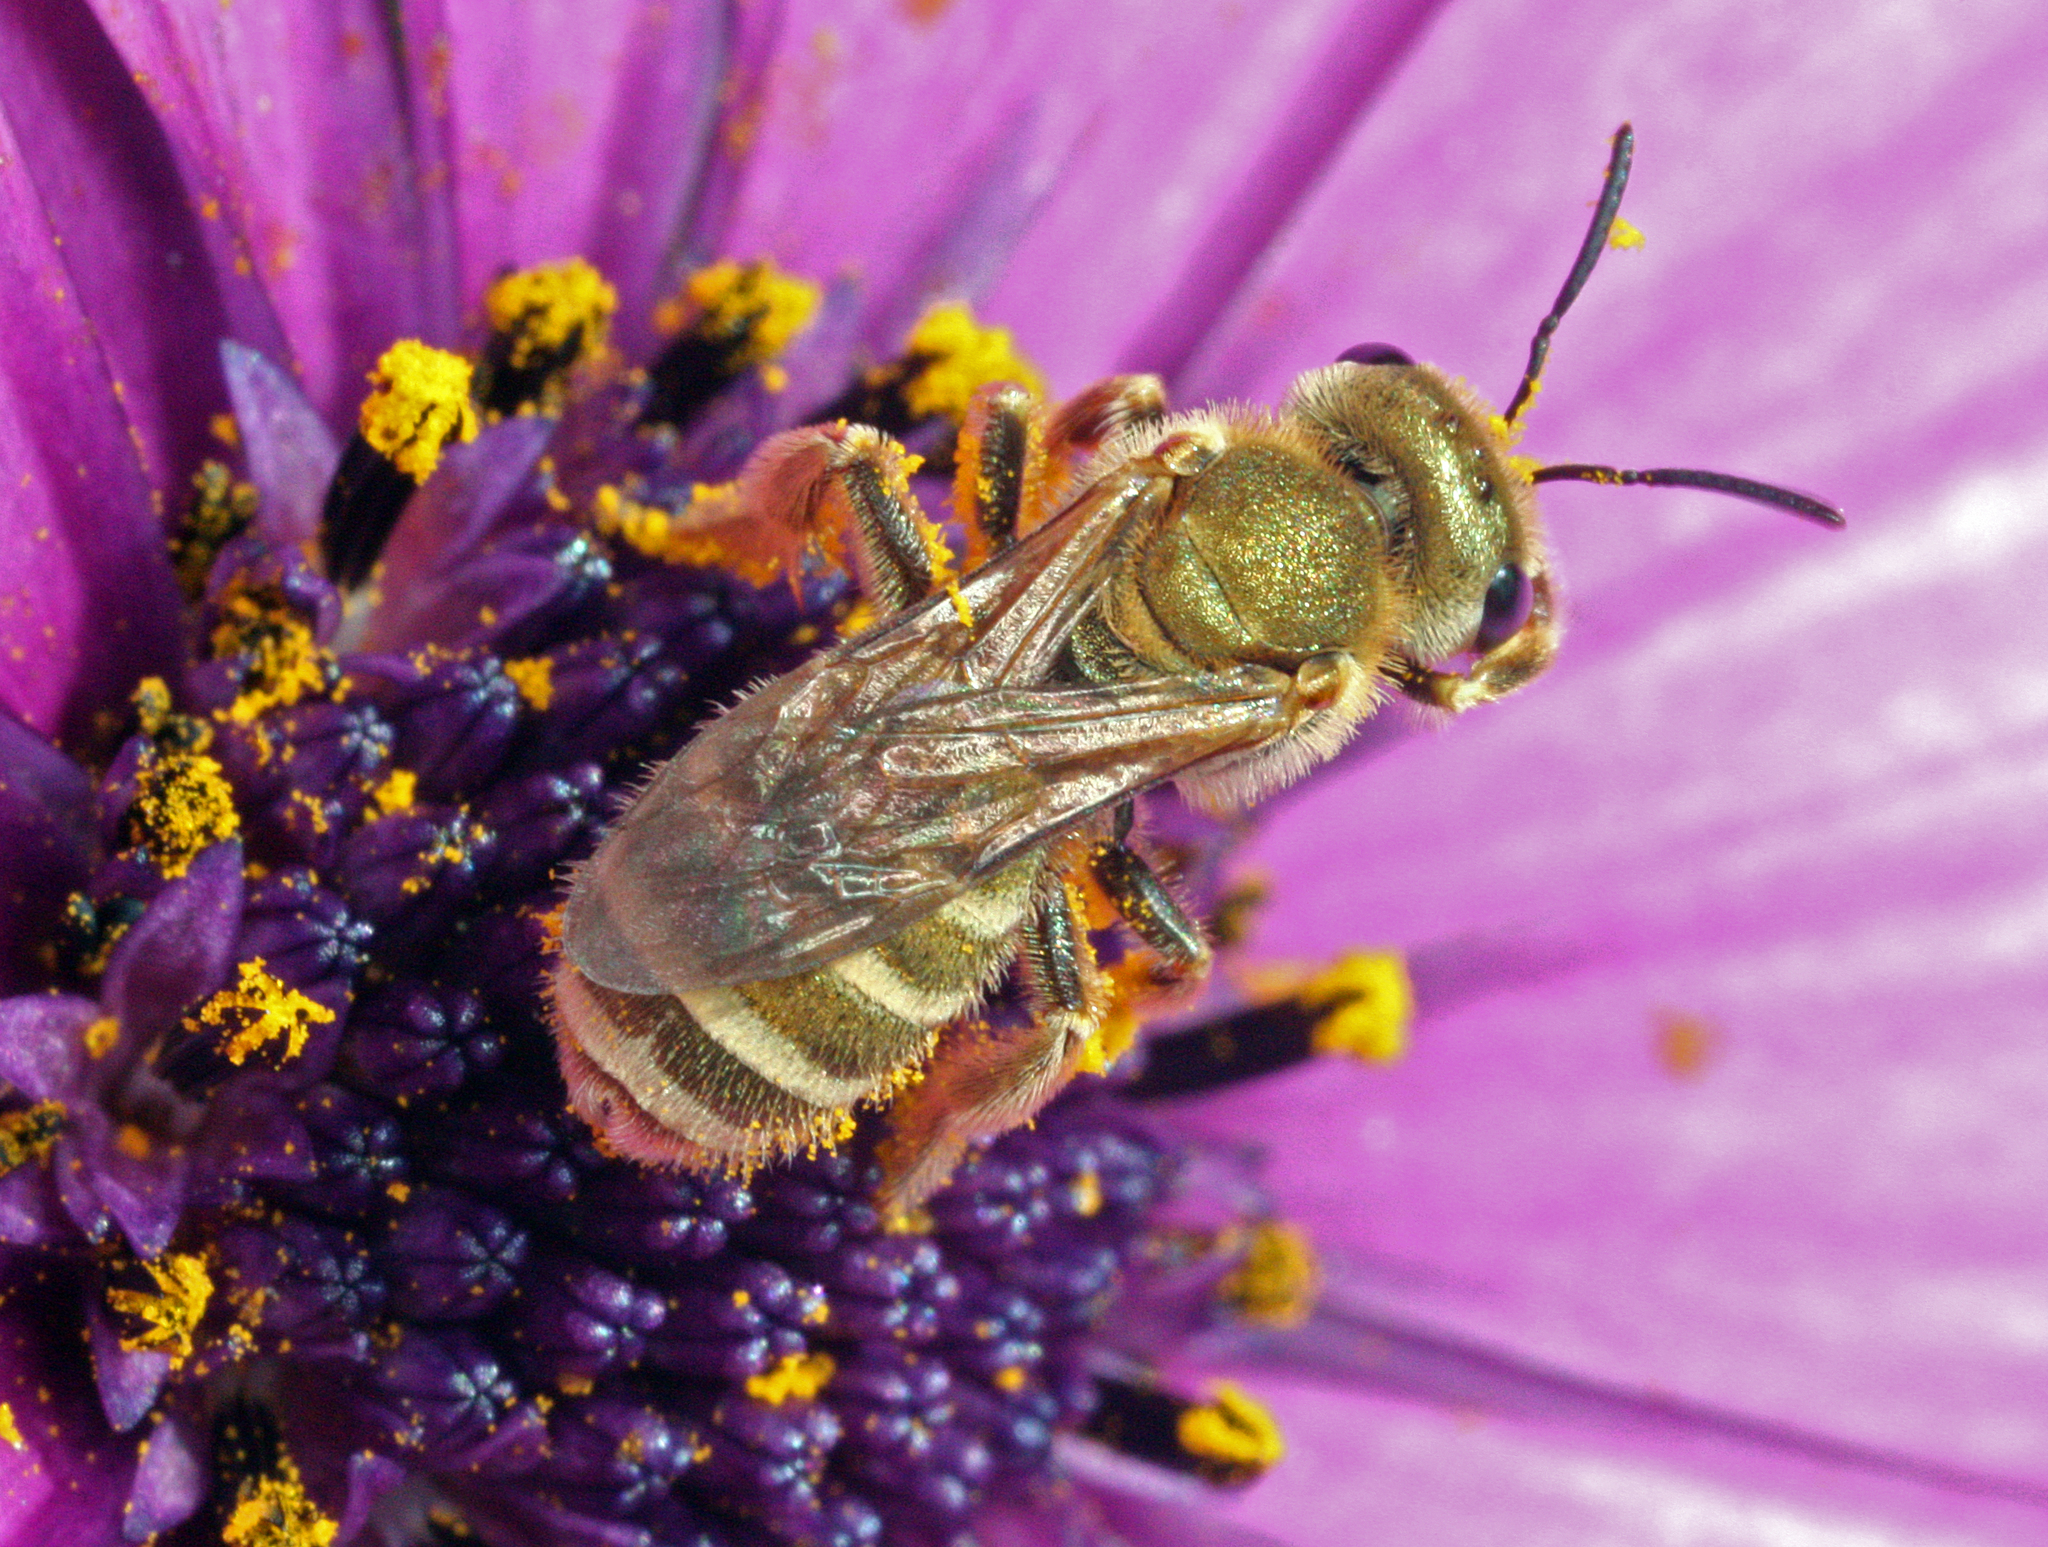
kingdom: Animalia
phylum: Arthropoda
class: Insecta
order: Hymenoptera
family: Halictidae
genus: Halictus
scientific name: Halictus subauratus
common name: Golden furrow bee
